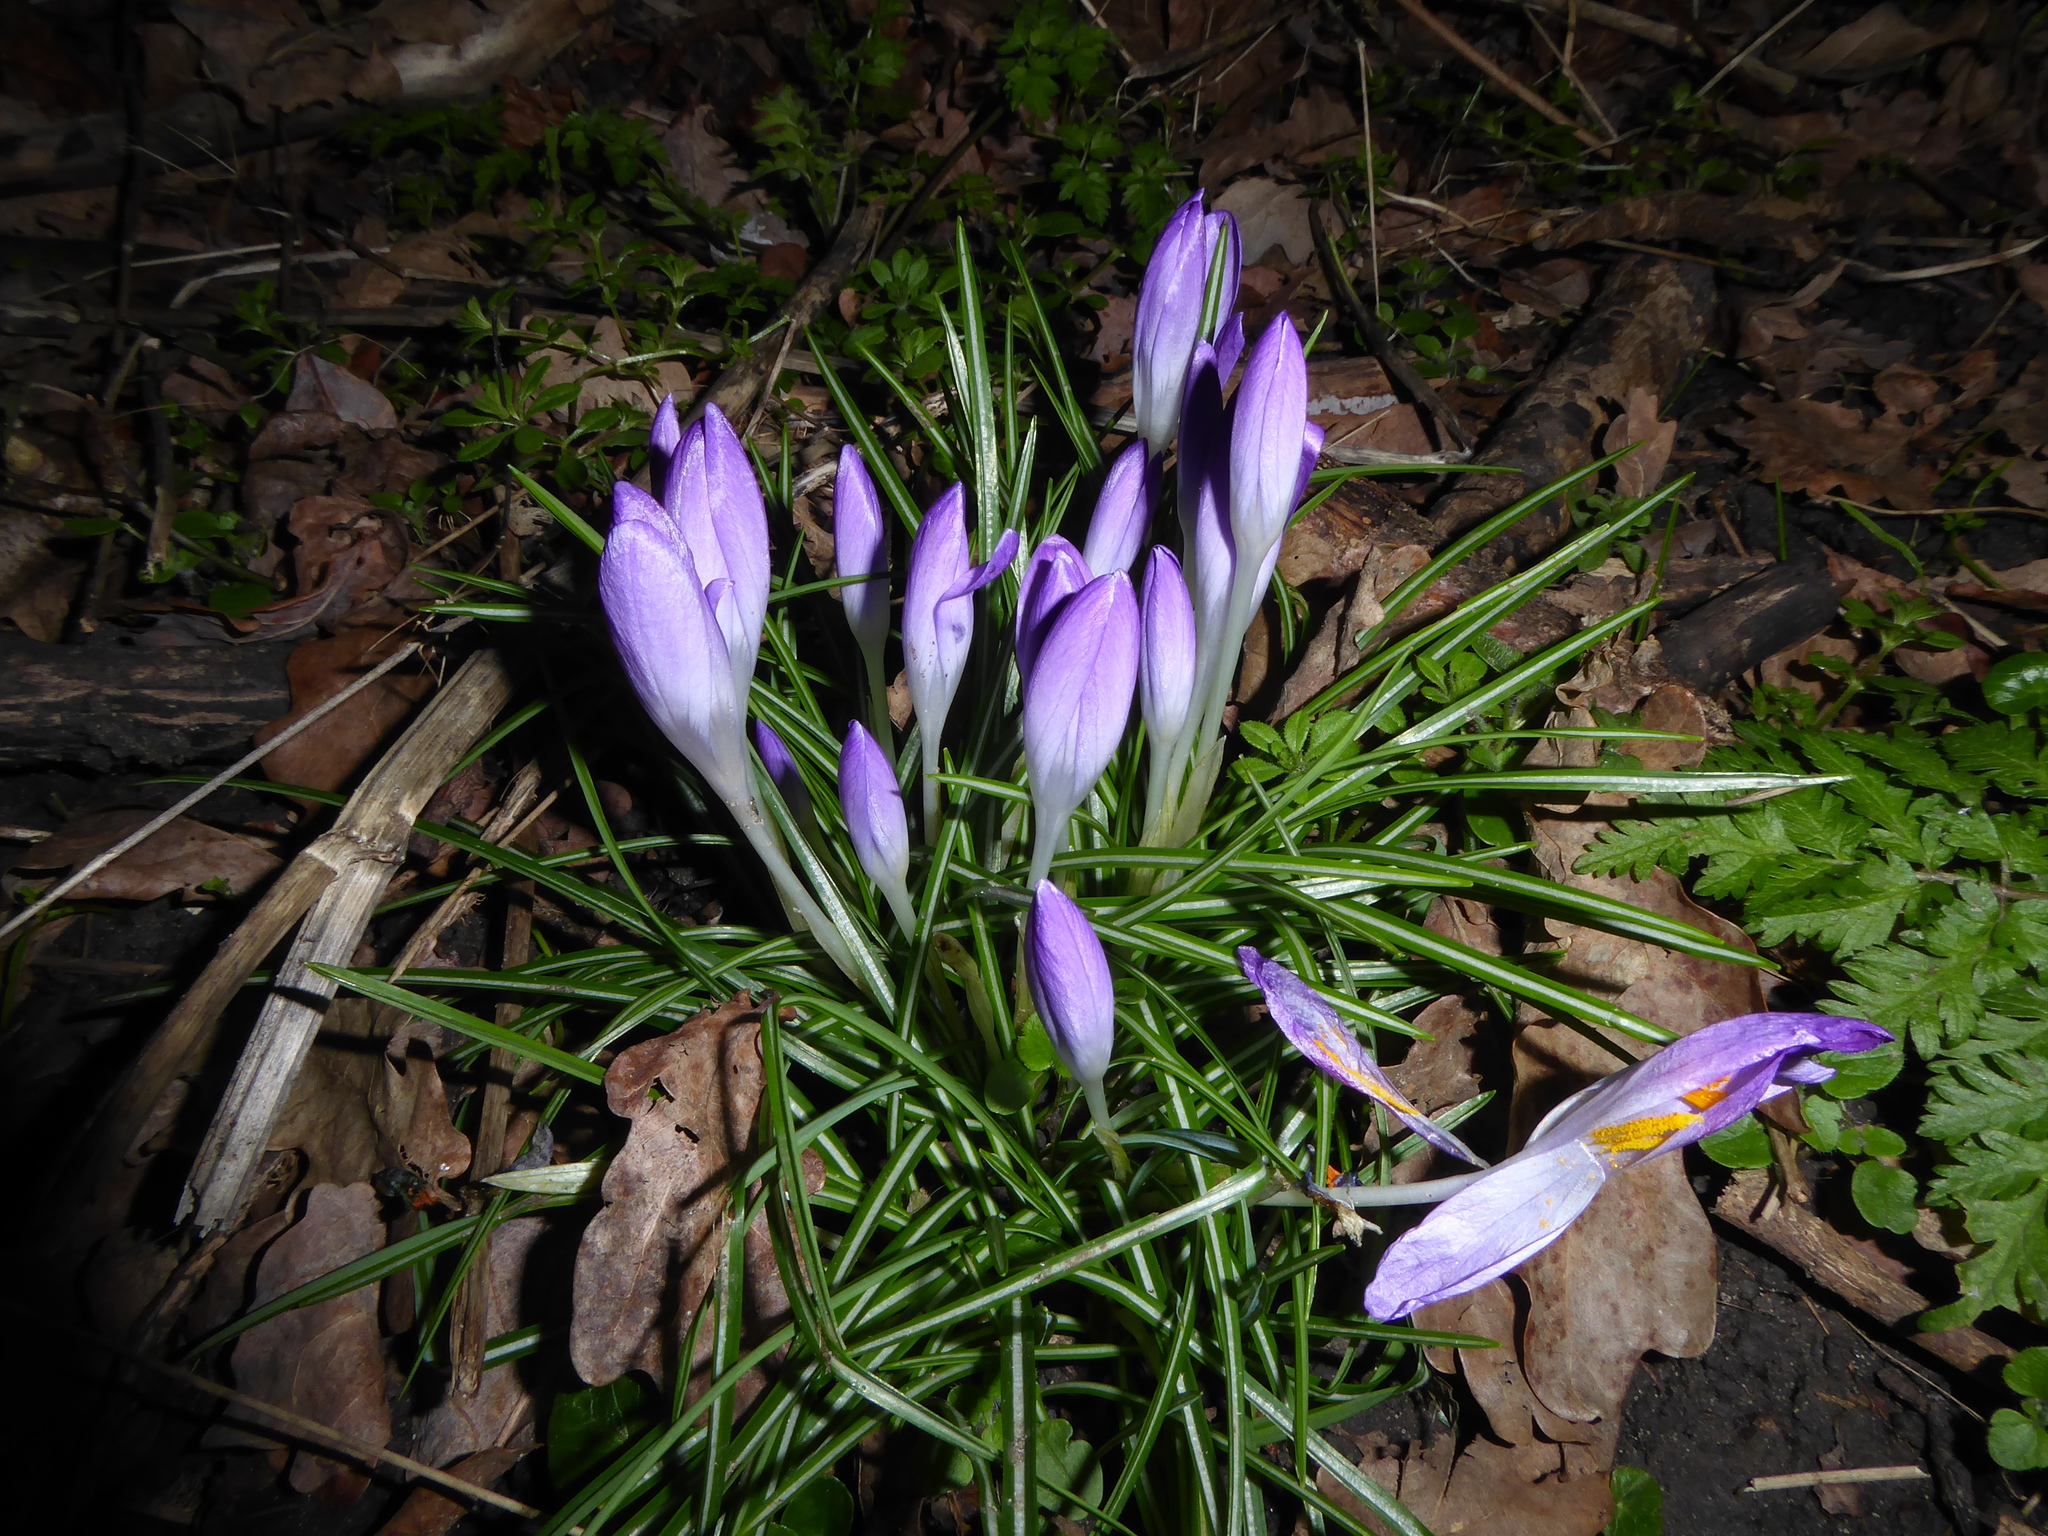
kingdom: Plantae
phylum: Tracheophyta
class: Liliopsida
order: Asparagales
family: Iridaceae
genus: Crocus
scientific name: Crocus tommasinianus
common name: Early crocus
